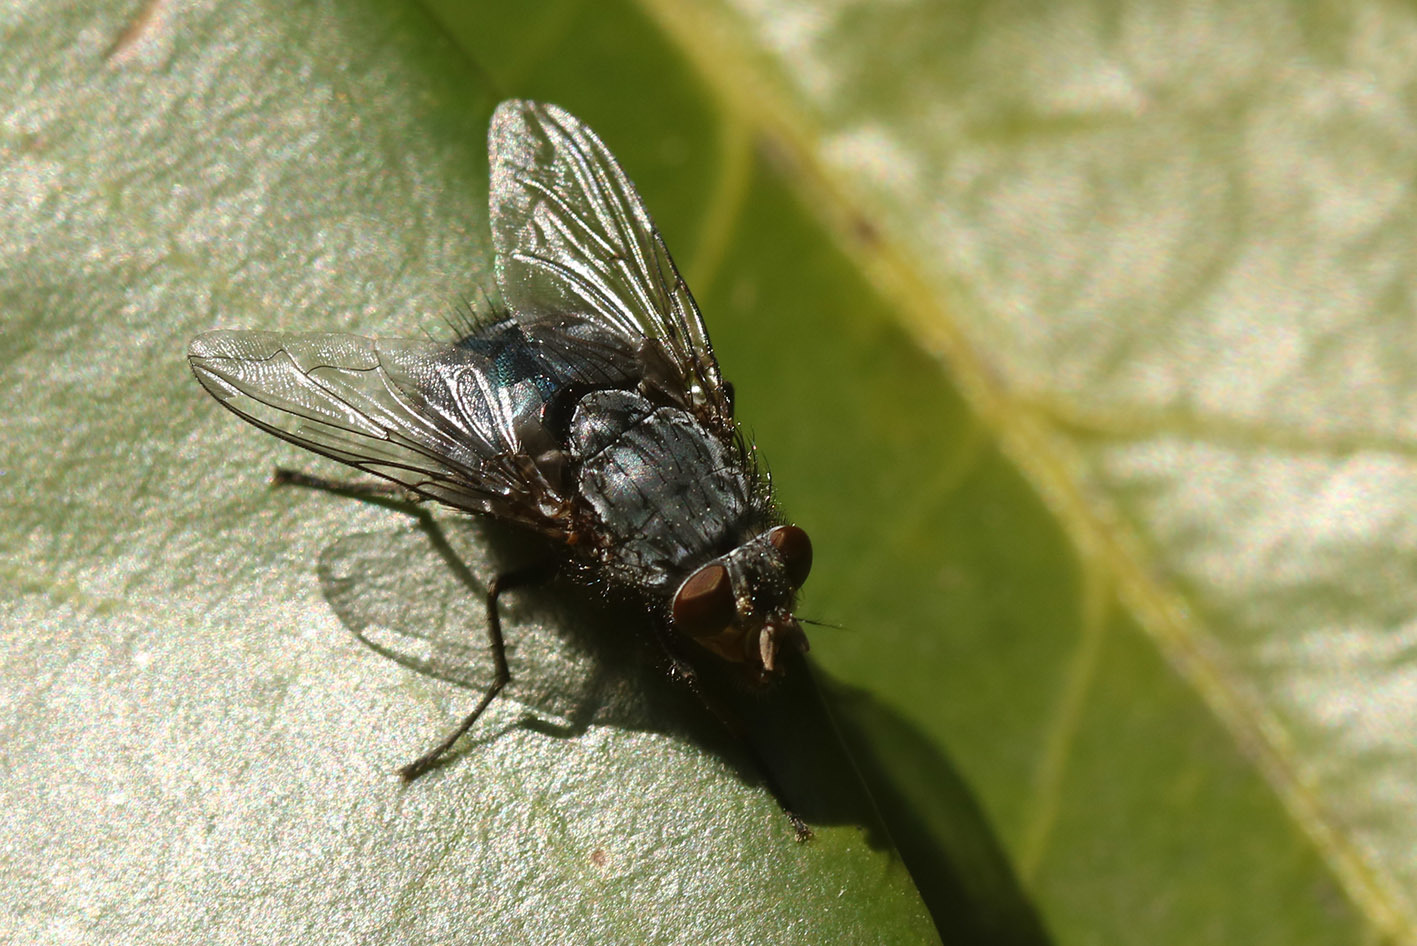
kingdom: Animalia
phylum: Arthropoda
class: Insecta
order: Diptera
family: Calliphoridae
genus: Calliphora
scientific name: Calliphora vicina
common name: Common blow flie
